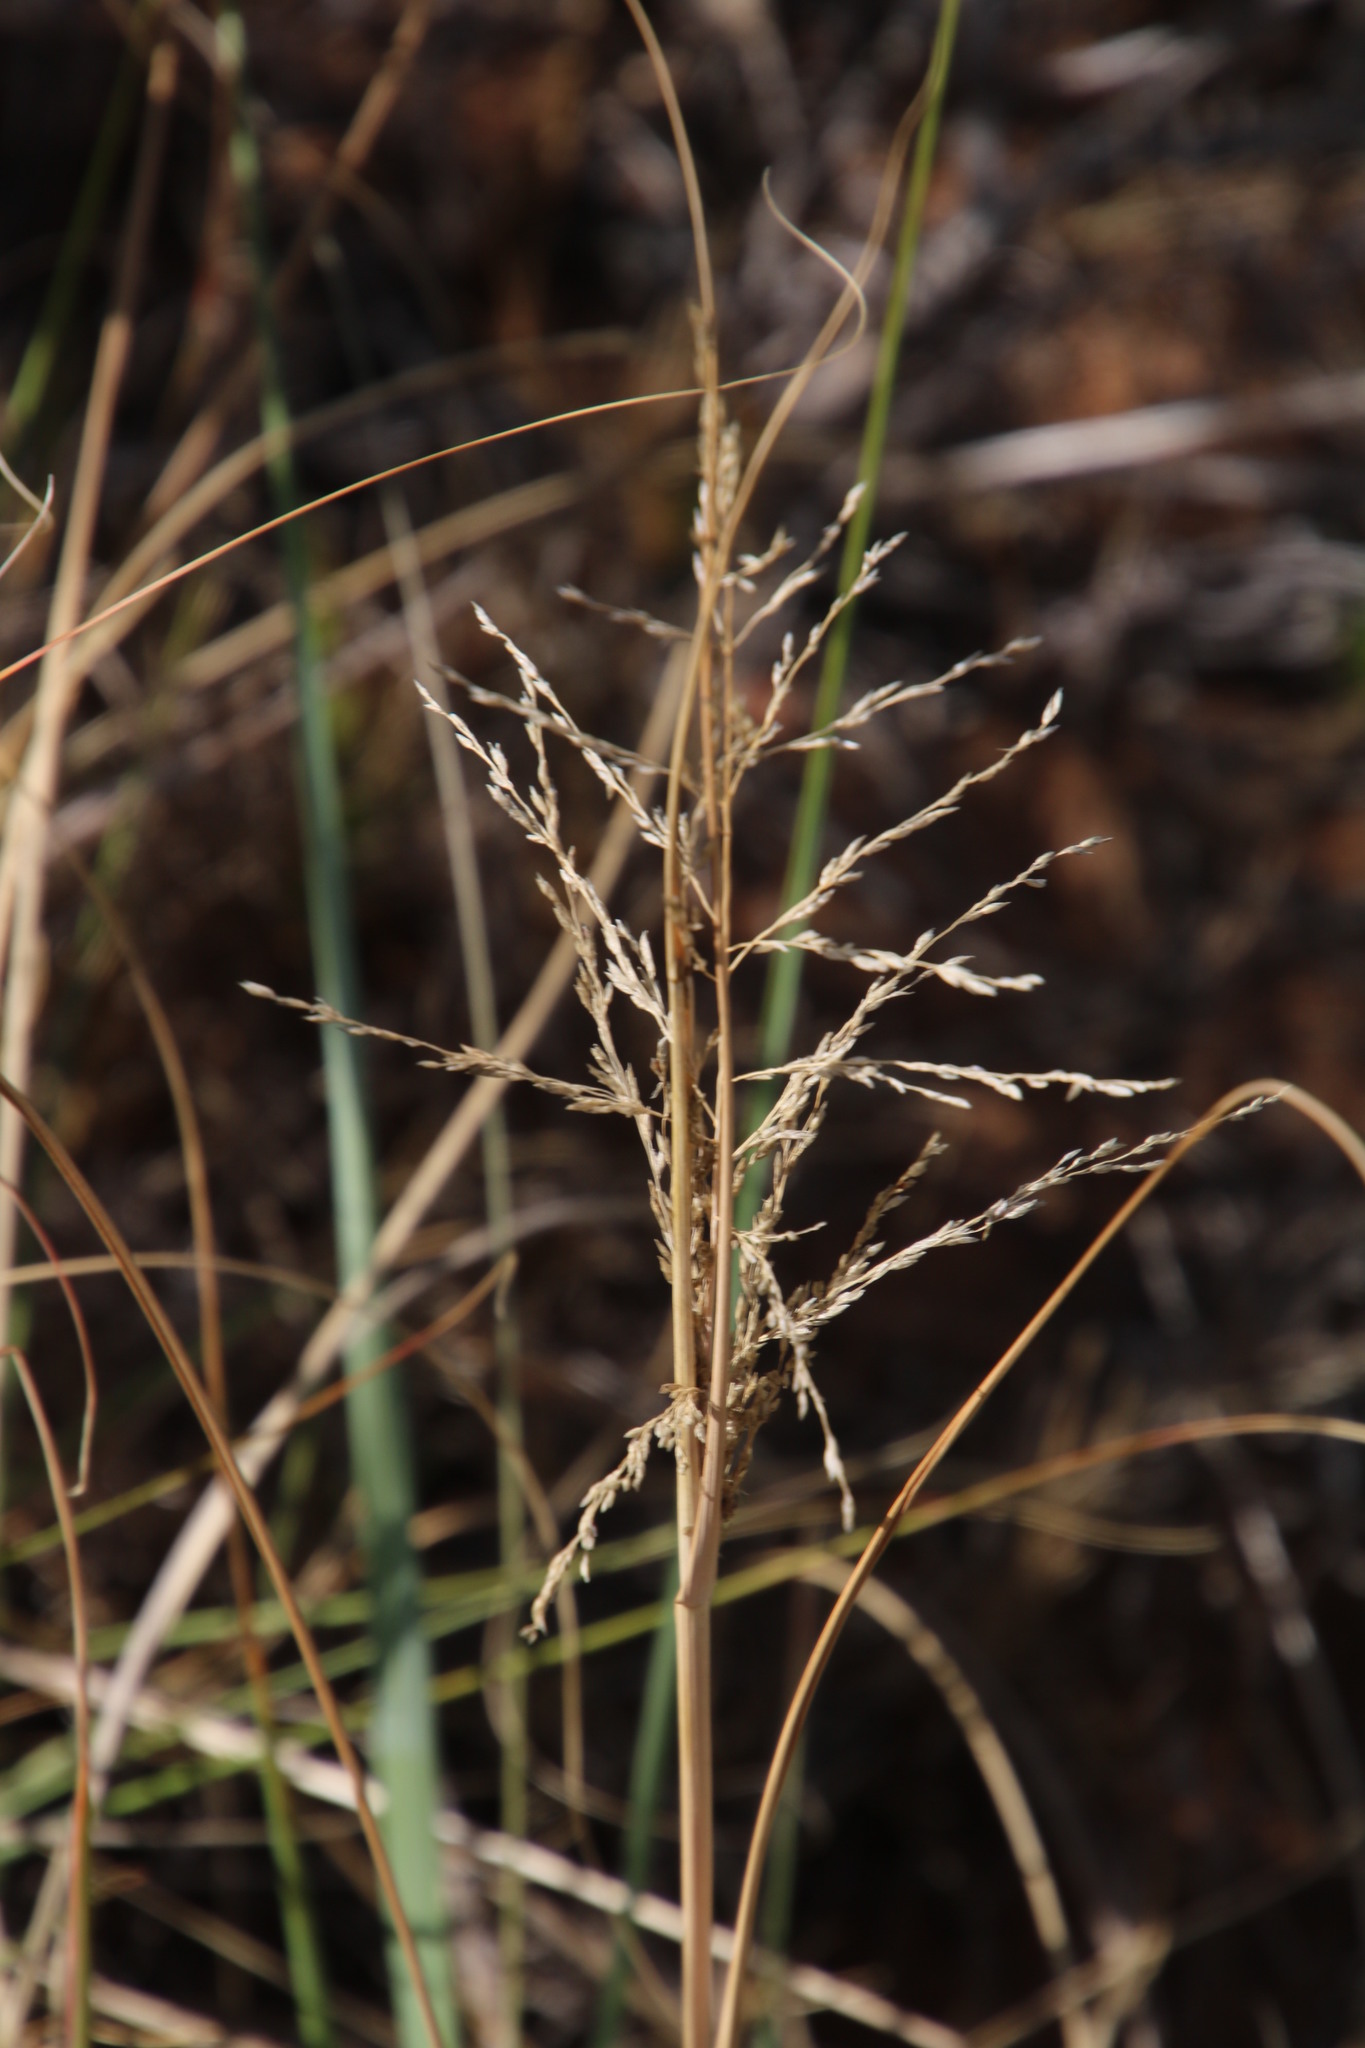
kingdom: Plantae
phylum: Tracheophyta
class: Liliopsida
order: Poales
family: Poaceae
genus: Eragrostis
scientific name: Eragrostis curvula
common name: African love-grass
